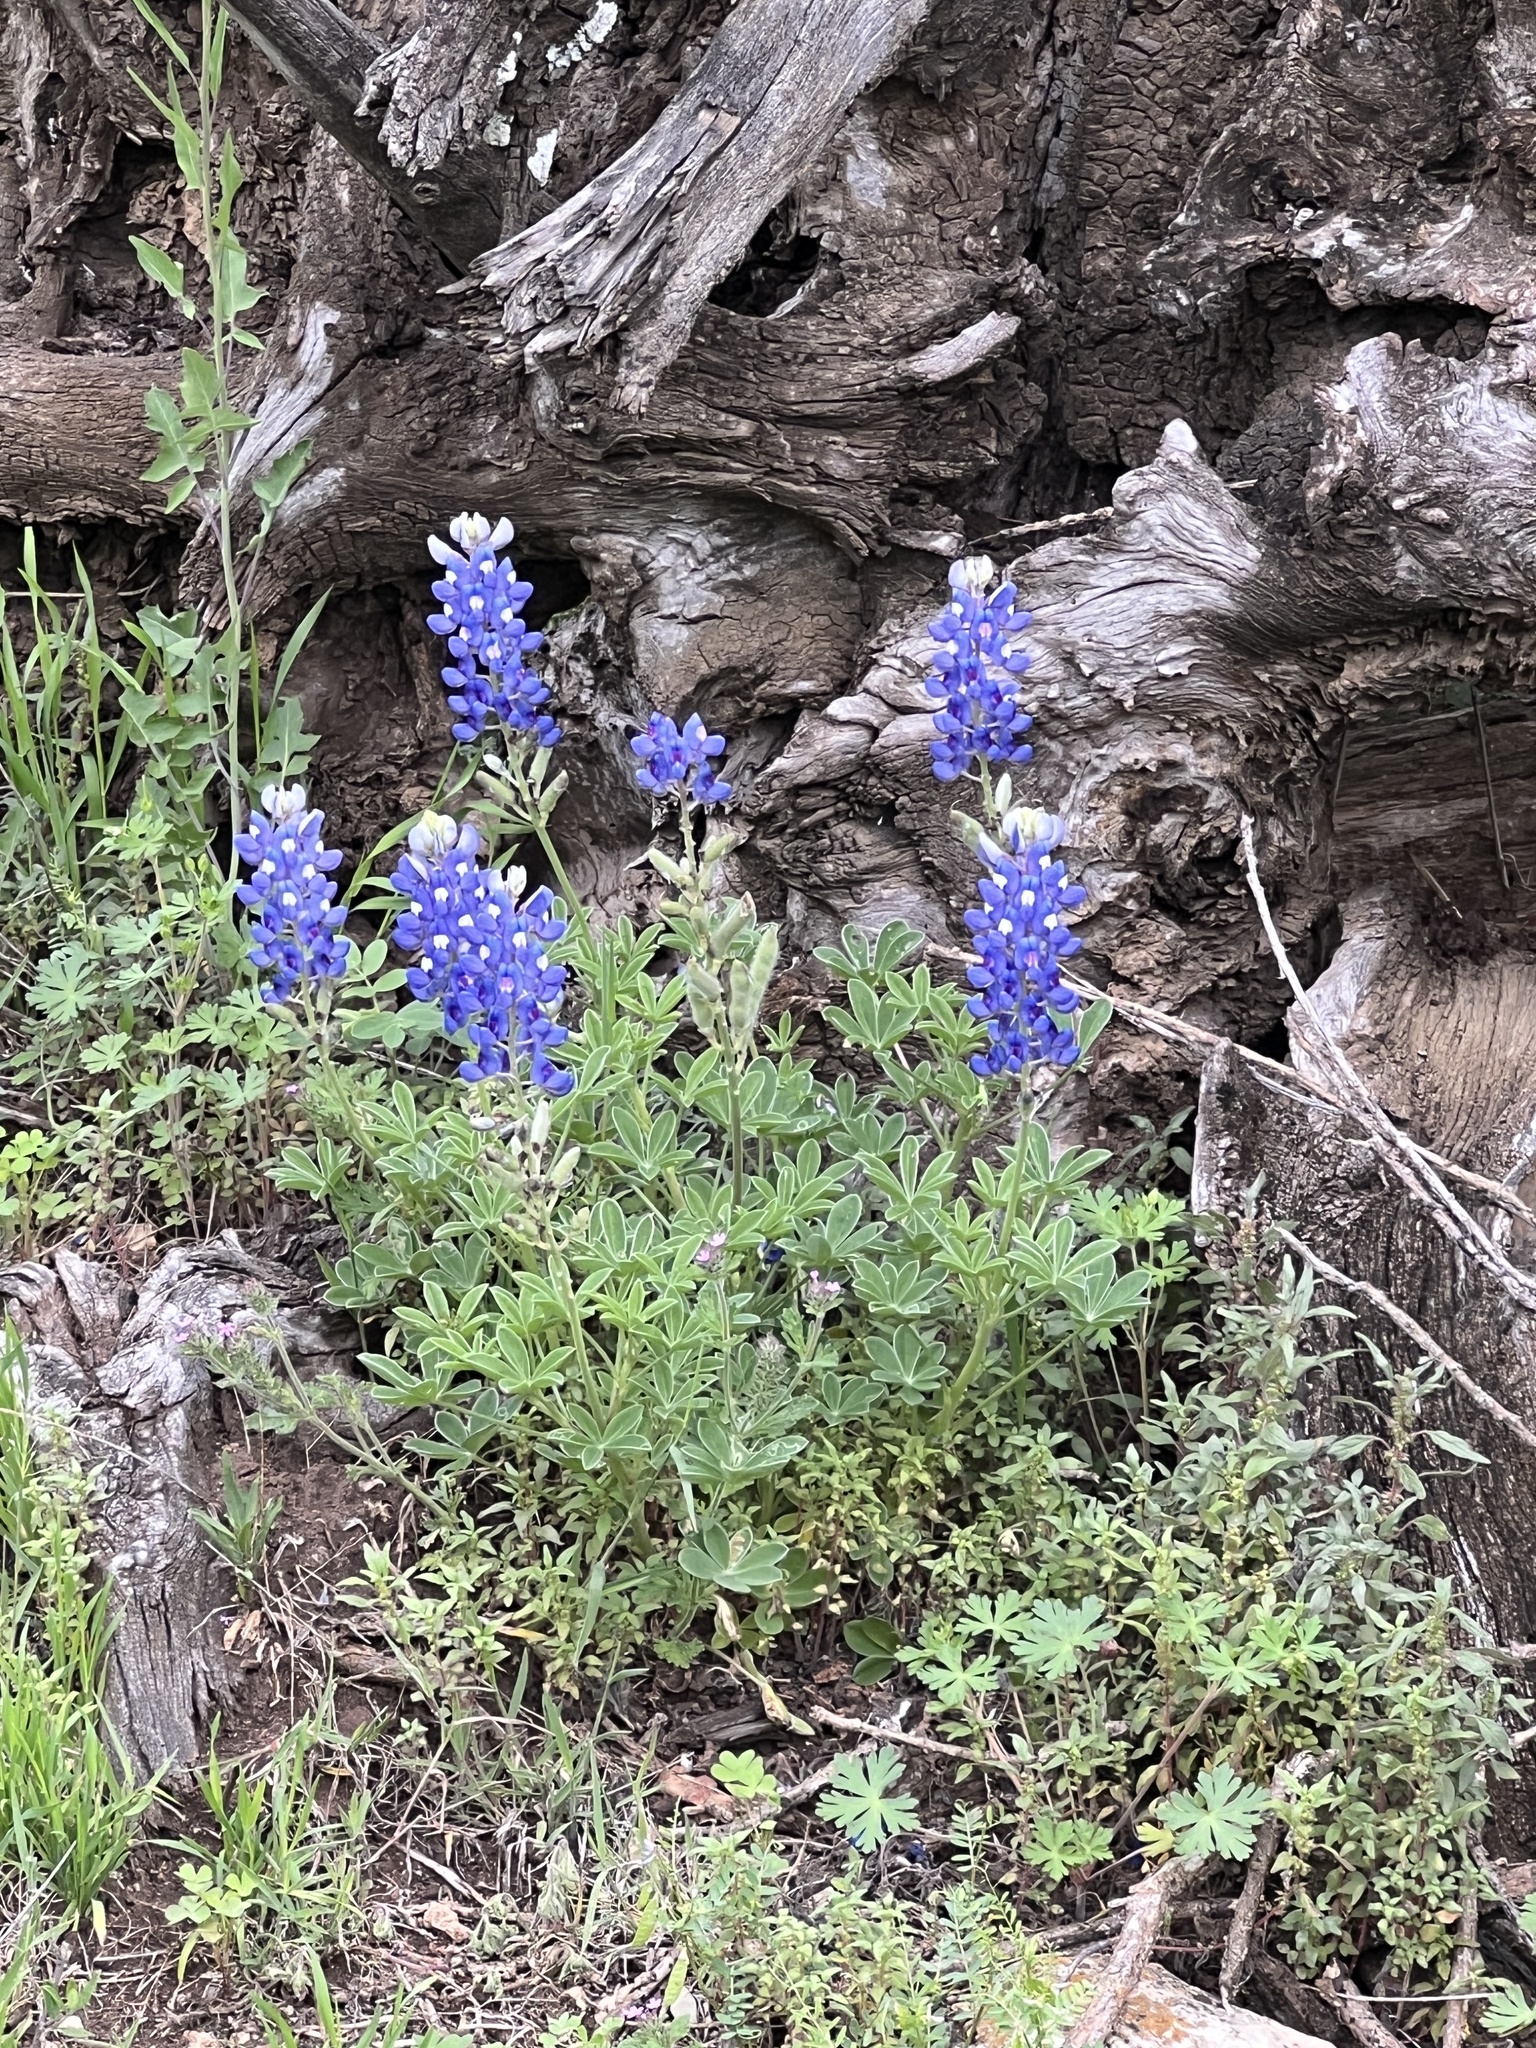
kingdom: Plantae
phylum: Tracheophyta
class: Magnoliopsida
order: Fabales
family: Fabaceae
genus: Lupinus
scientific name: Lupinus texensis
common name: Texas bluebonnet
